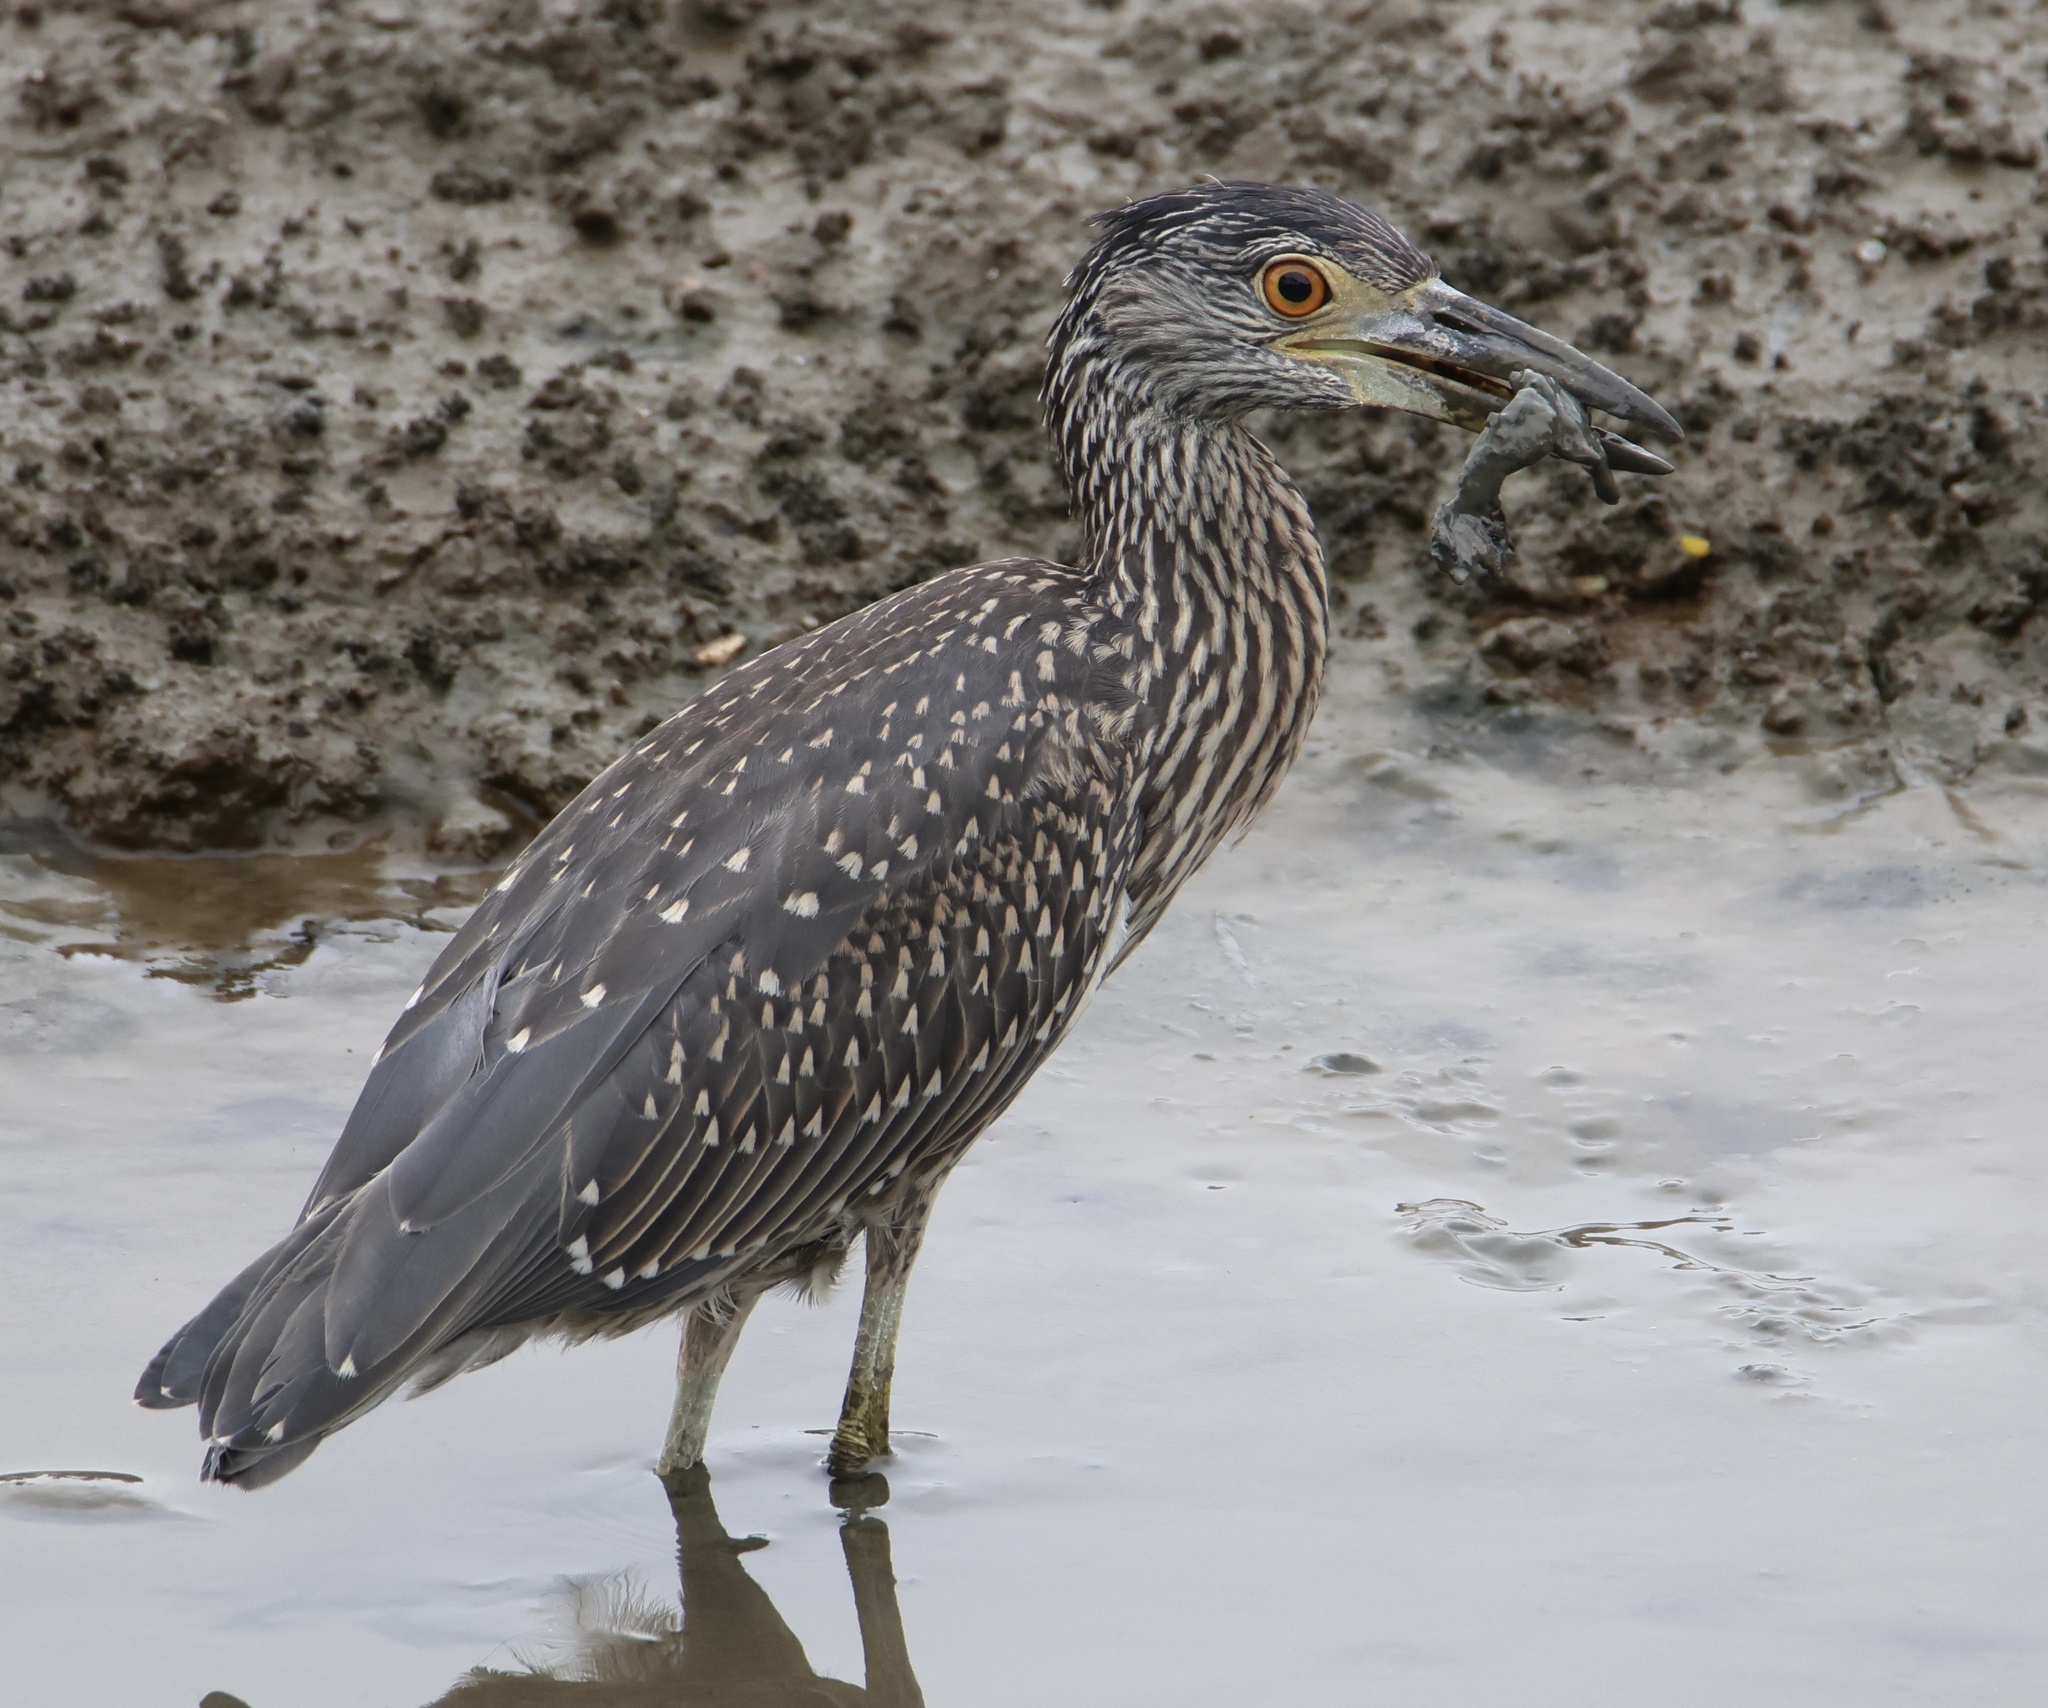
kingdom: Animalia
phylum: Chordata
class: Aves
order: Pelecaniformes
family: Ardeidae
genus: Nyctanassa
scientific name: Nyctanassa violacea
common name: Yellow-crowned night heron
